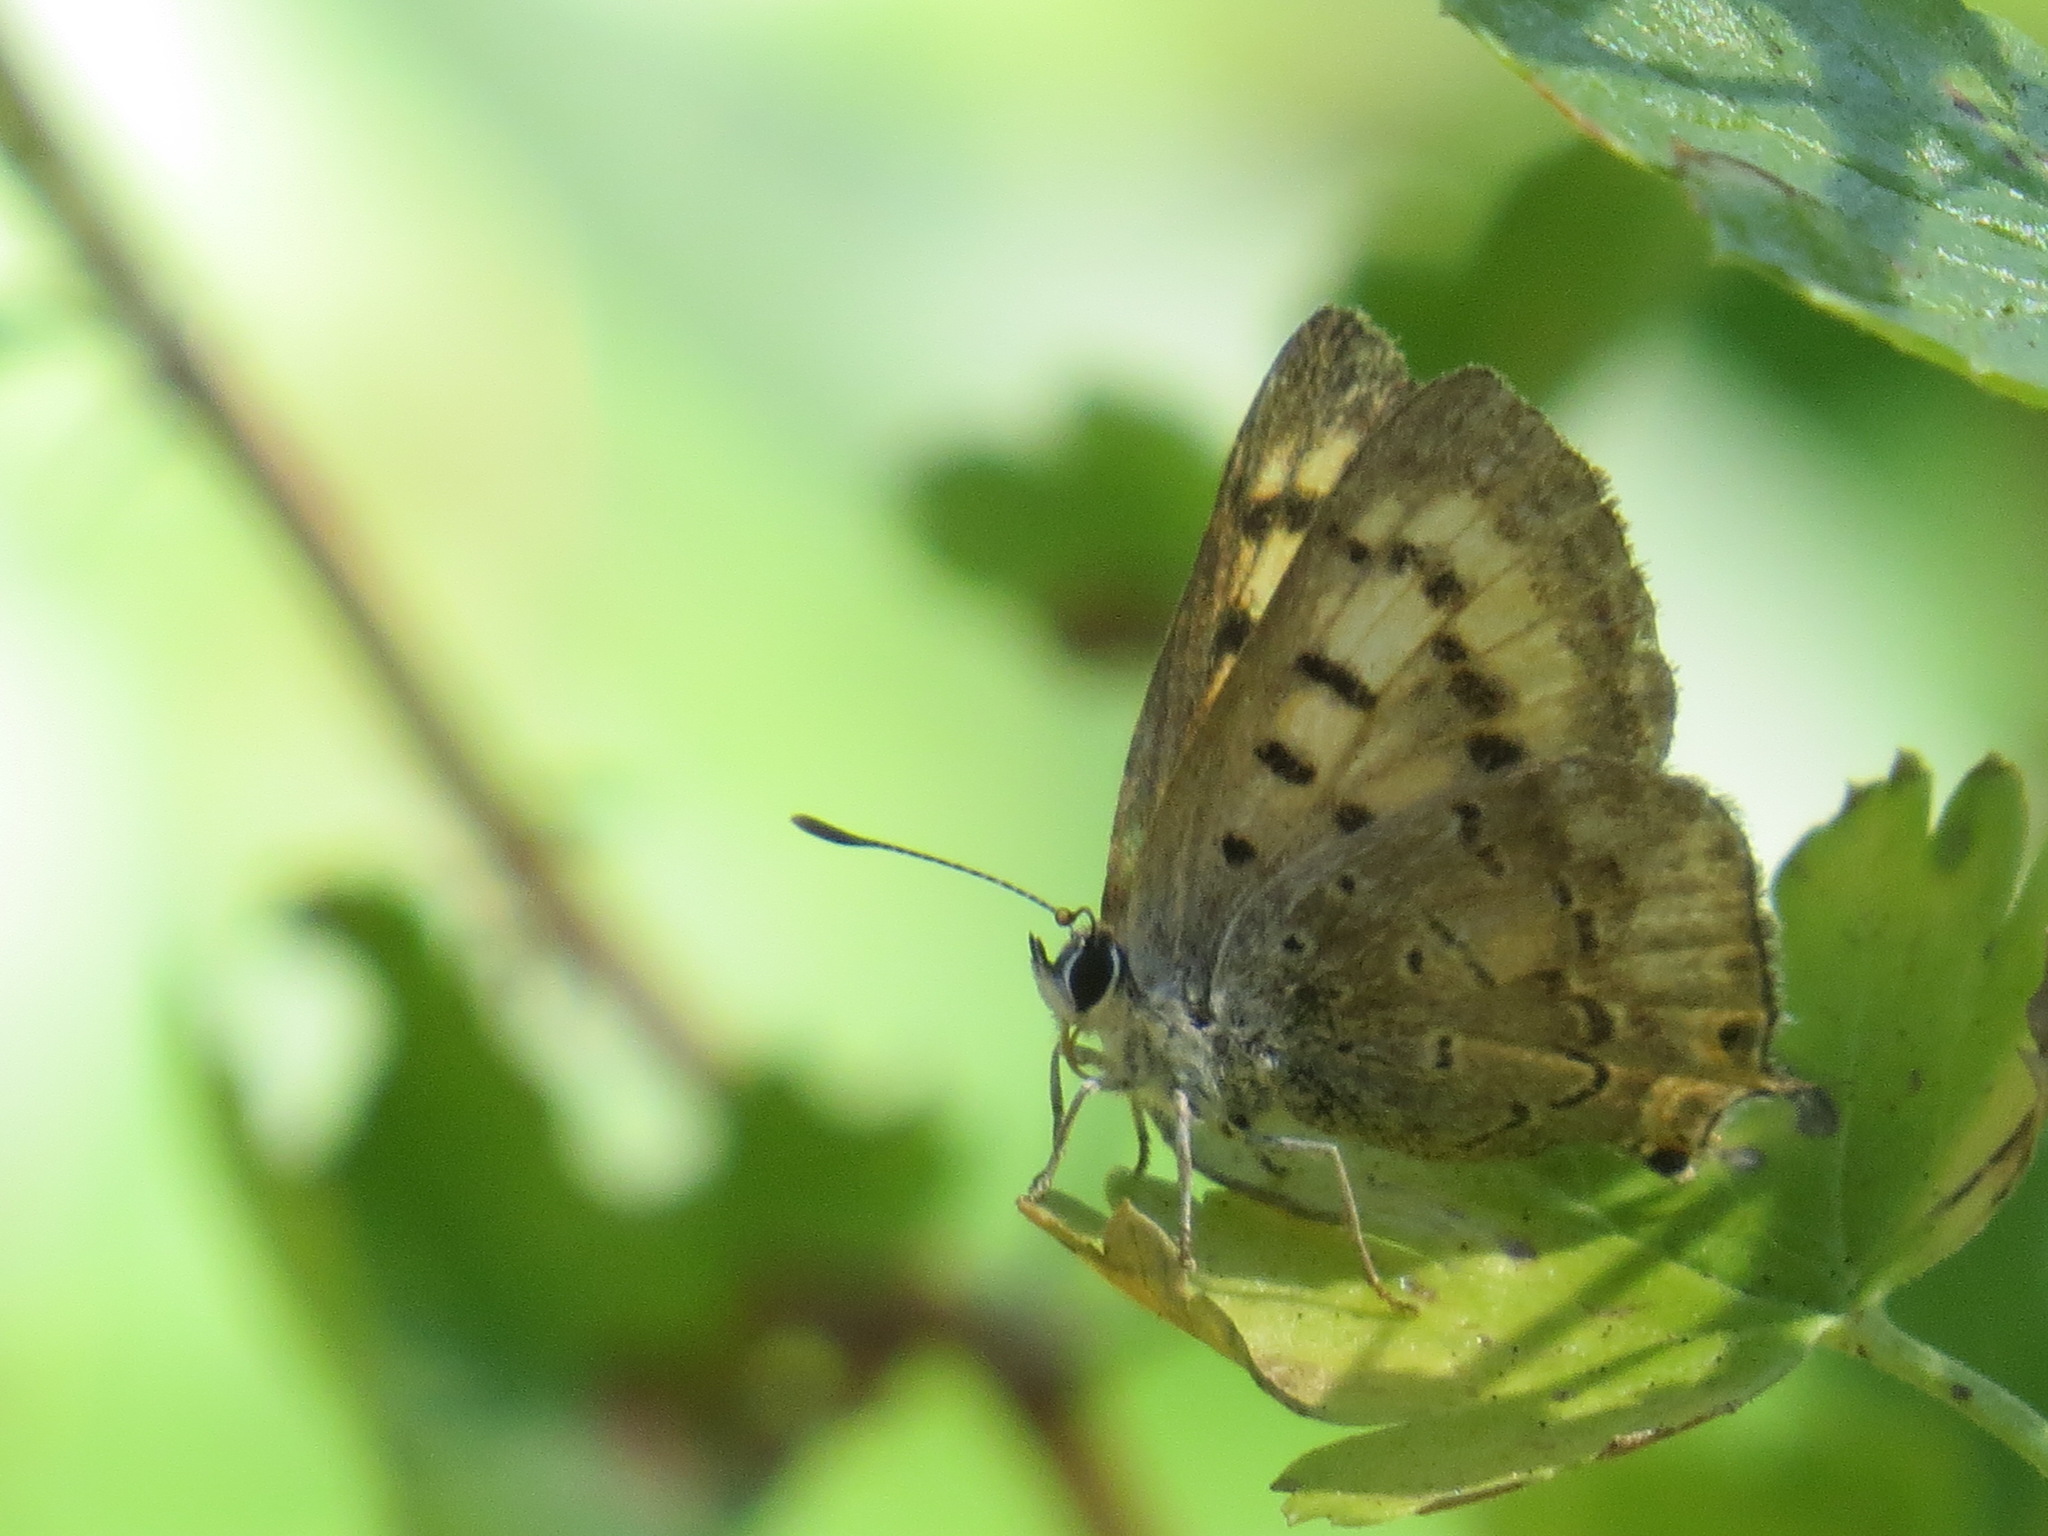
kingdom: Animalia
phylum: Arthropoda
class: Insecta
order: Lepidoptera
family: Lycaenidae
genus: Tharsalea
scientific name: Tharsalea arota
